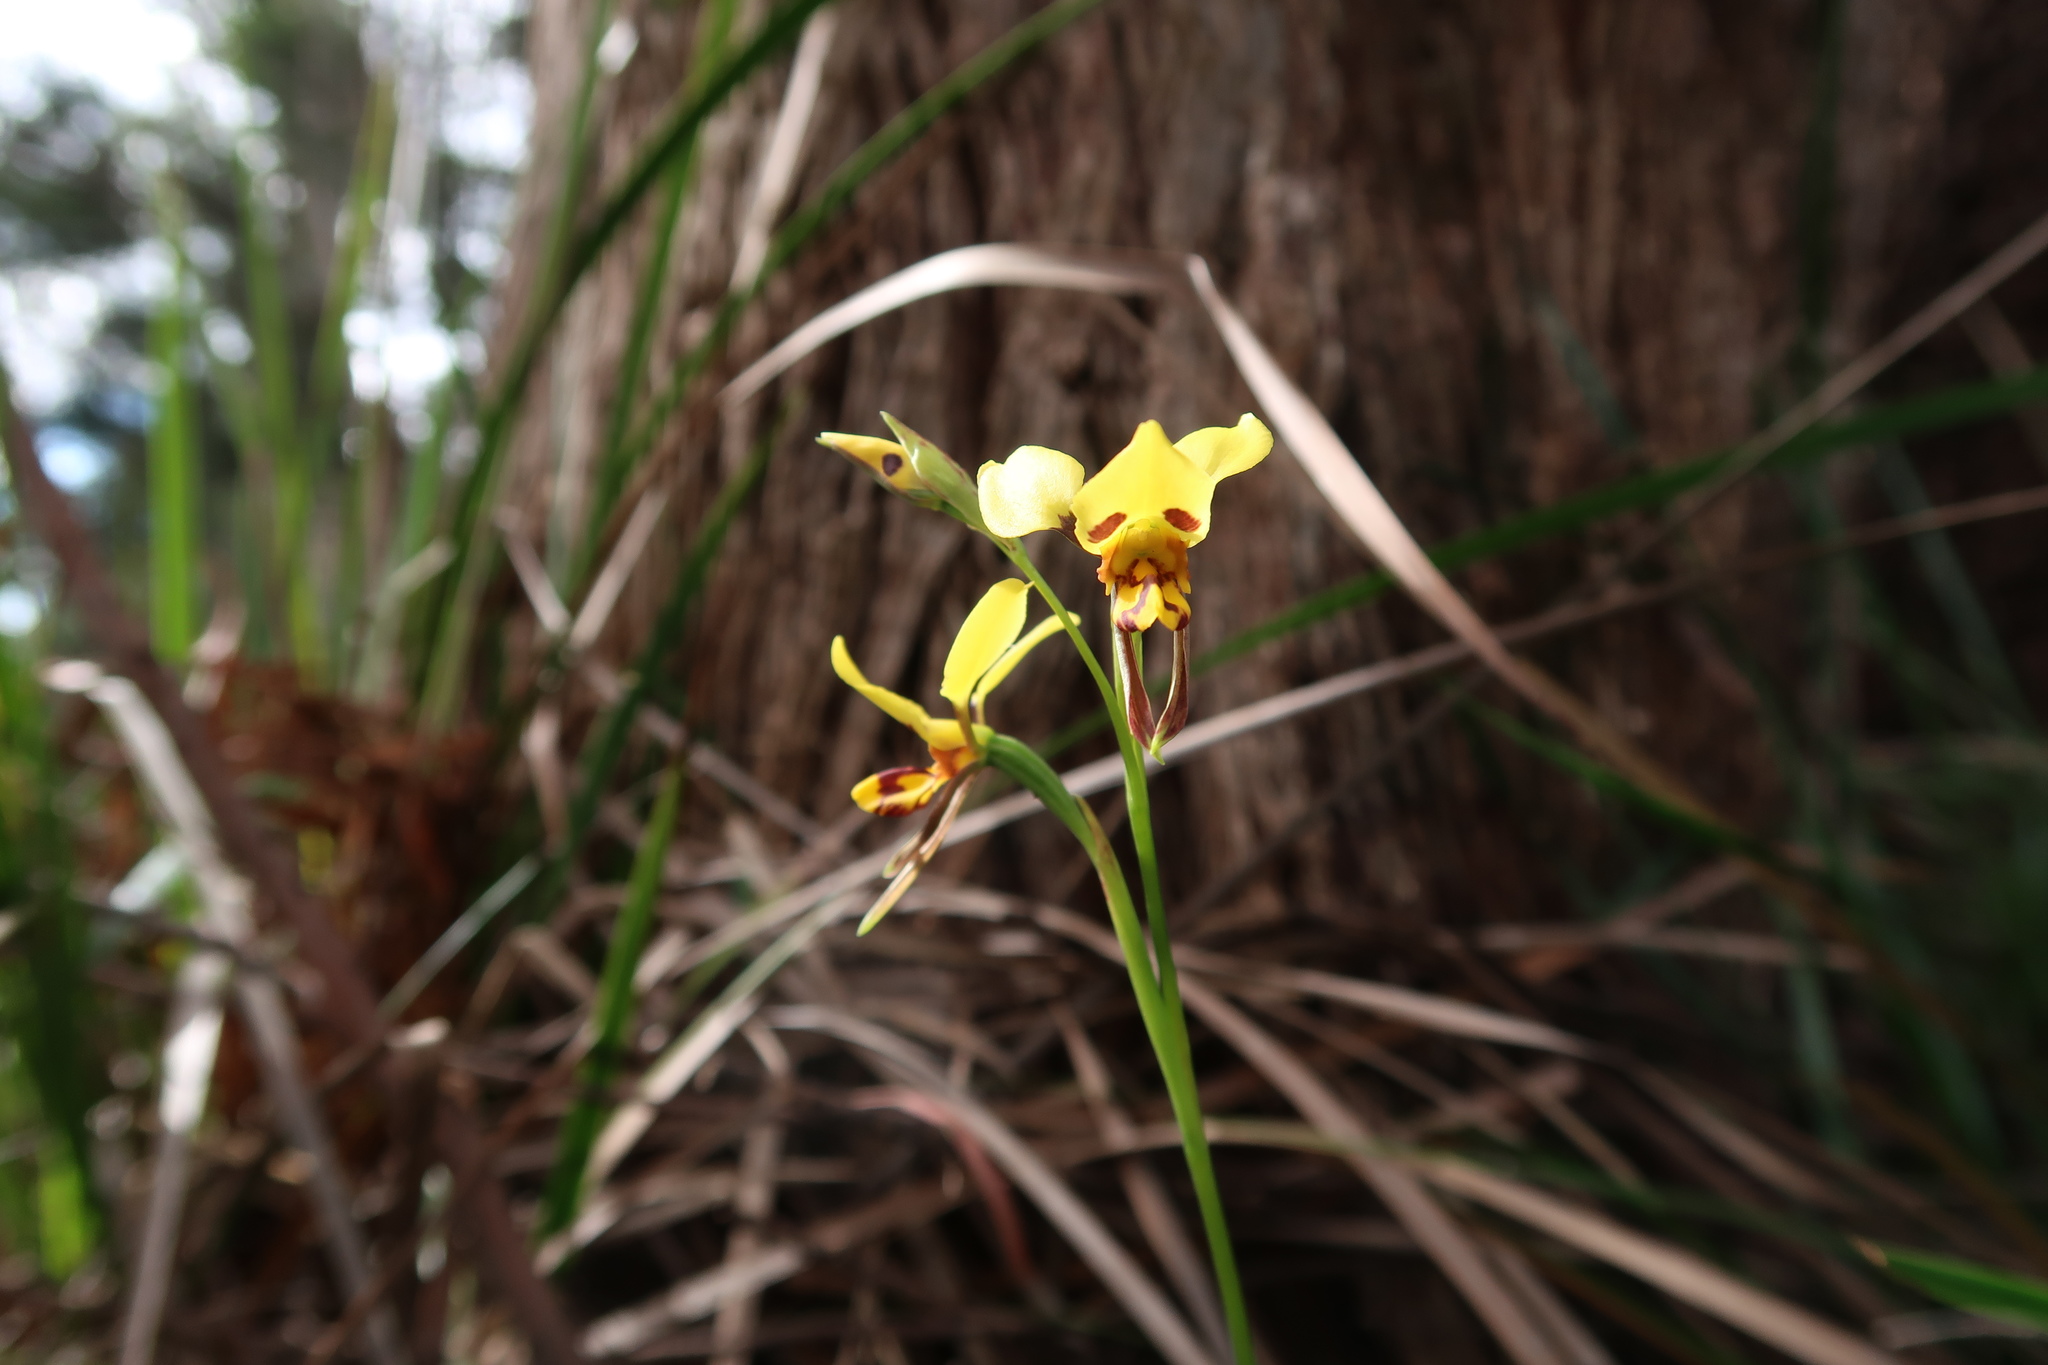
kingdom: Plantae
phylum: Tracheophyta
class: Liliopsida
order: Asparagales
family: Orchidaceae
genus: Diuris
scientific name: Diuris sulphurea
